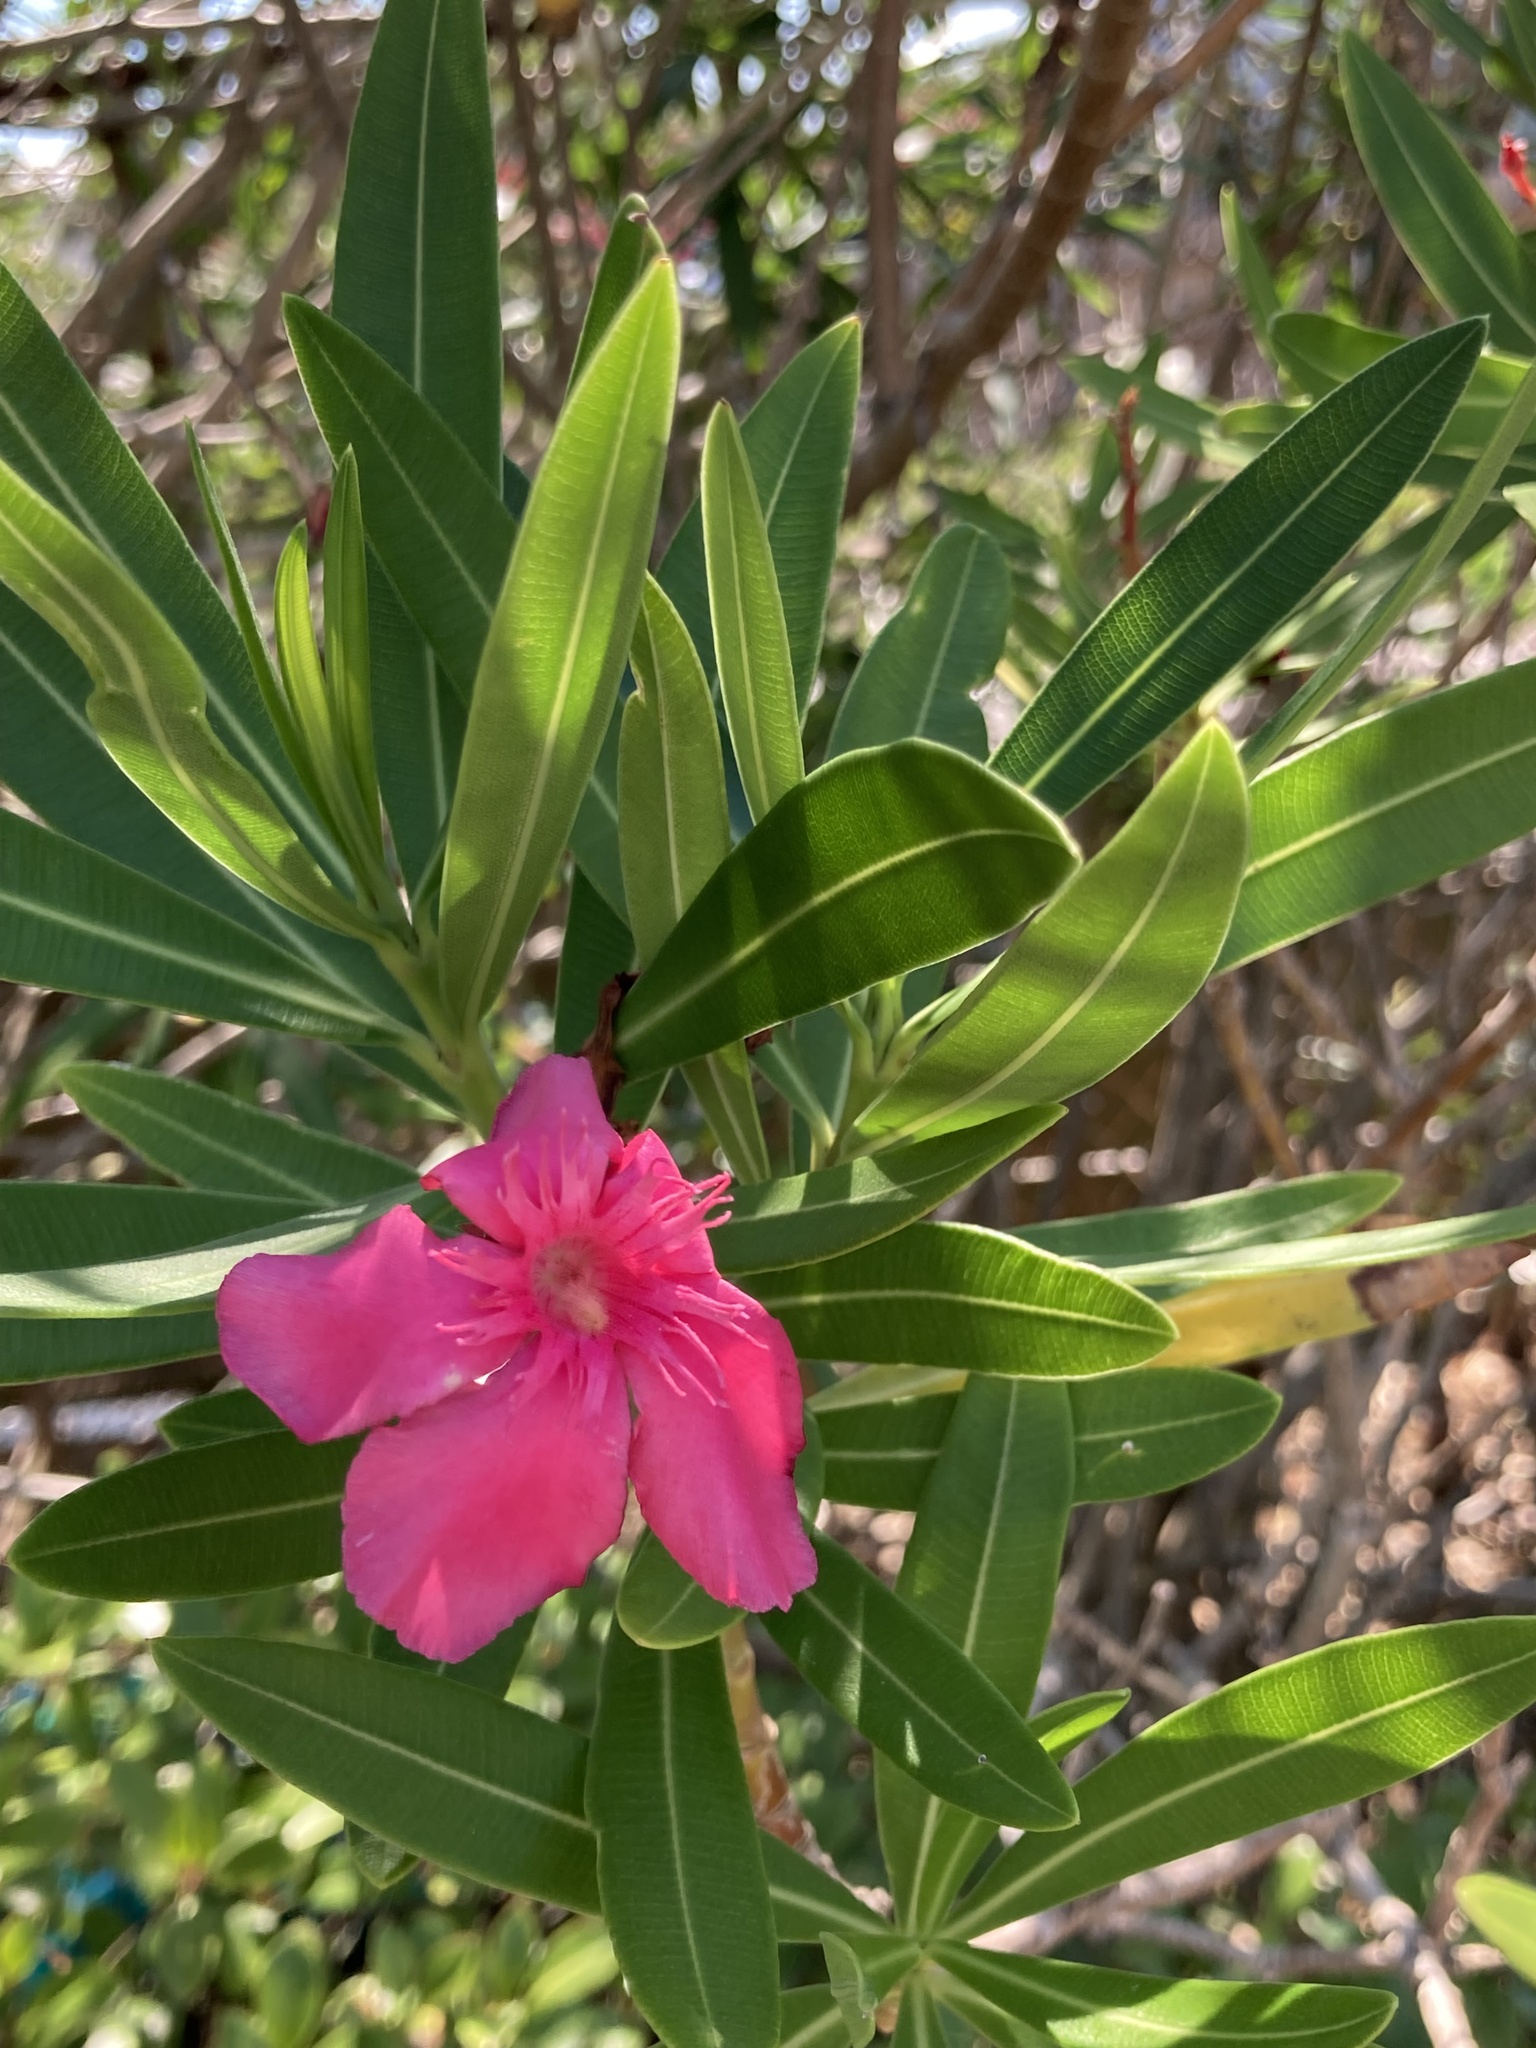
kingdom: Plantae
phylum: Tracheophyta
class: Magnoliopsida
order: Gentianales
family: Apocynaceae
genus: Nerium
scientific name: Nerium oleander
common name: Oleander
